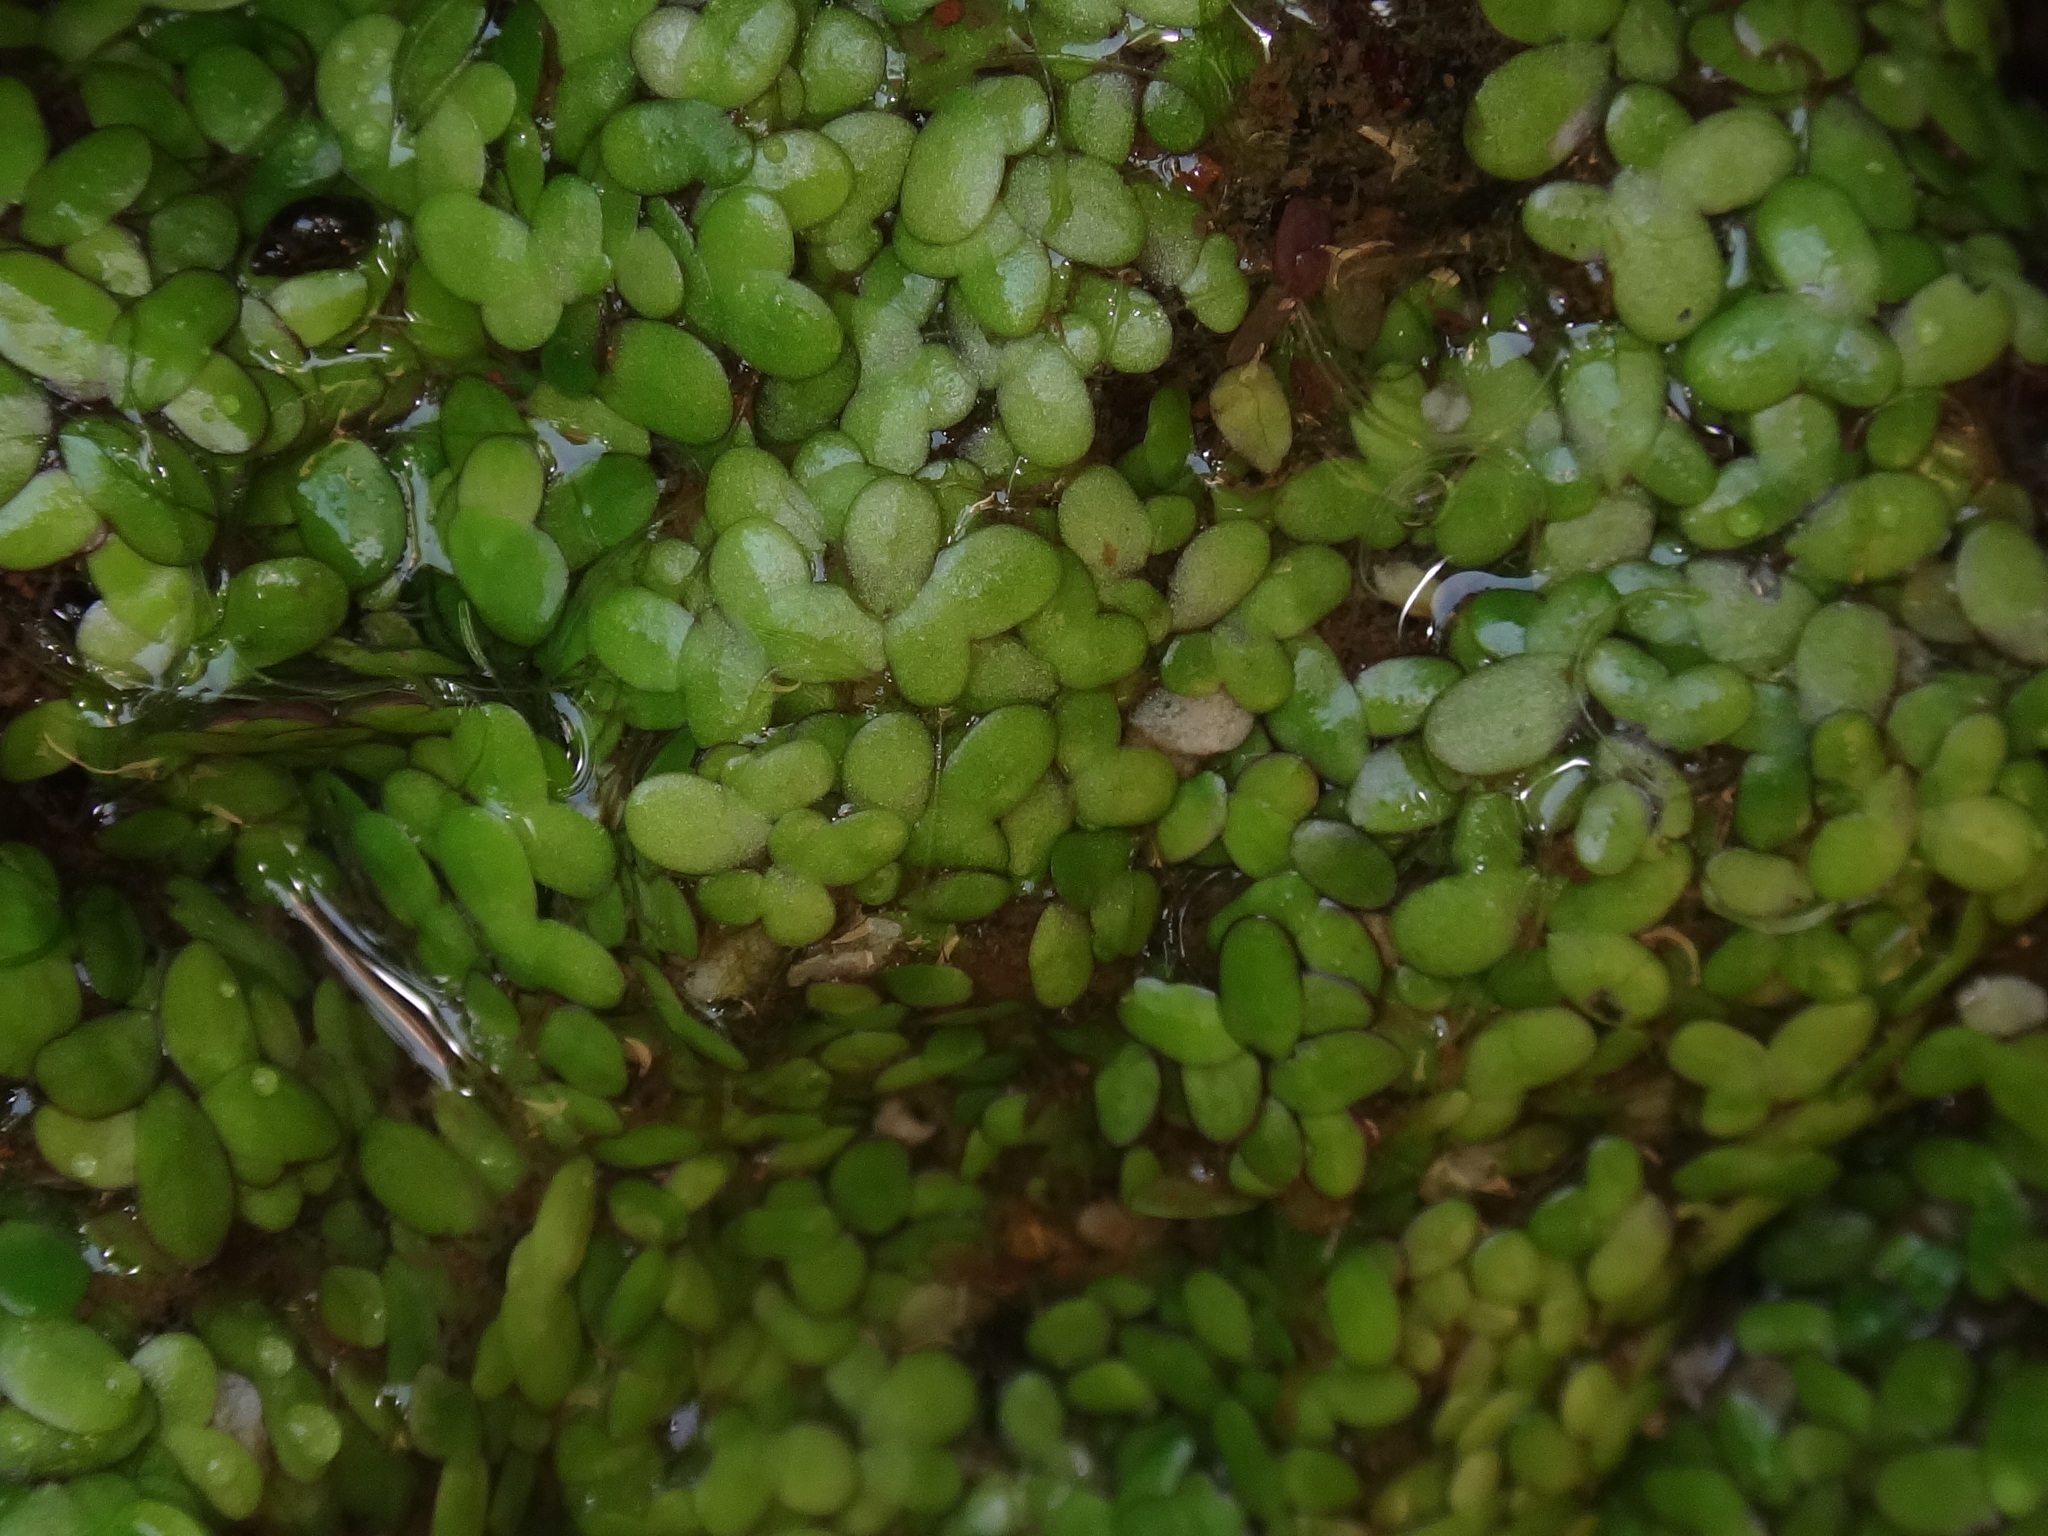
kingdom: Plantae
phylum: Tracheophyta
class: Liliopsida
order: Alismatales
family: Araceae
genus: Lemna
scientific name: Lemna minor
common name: Common duckweed
